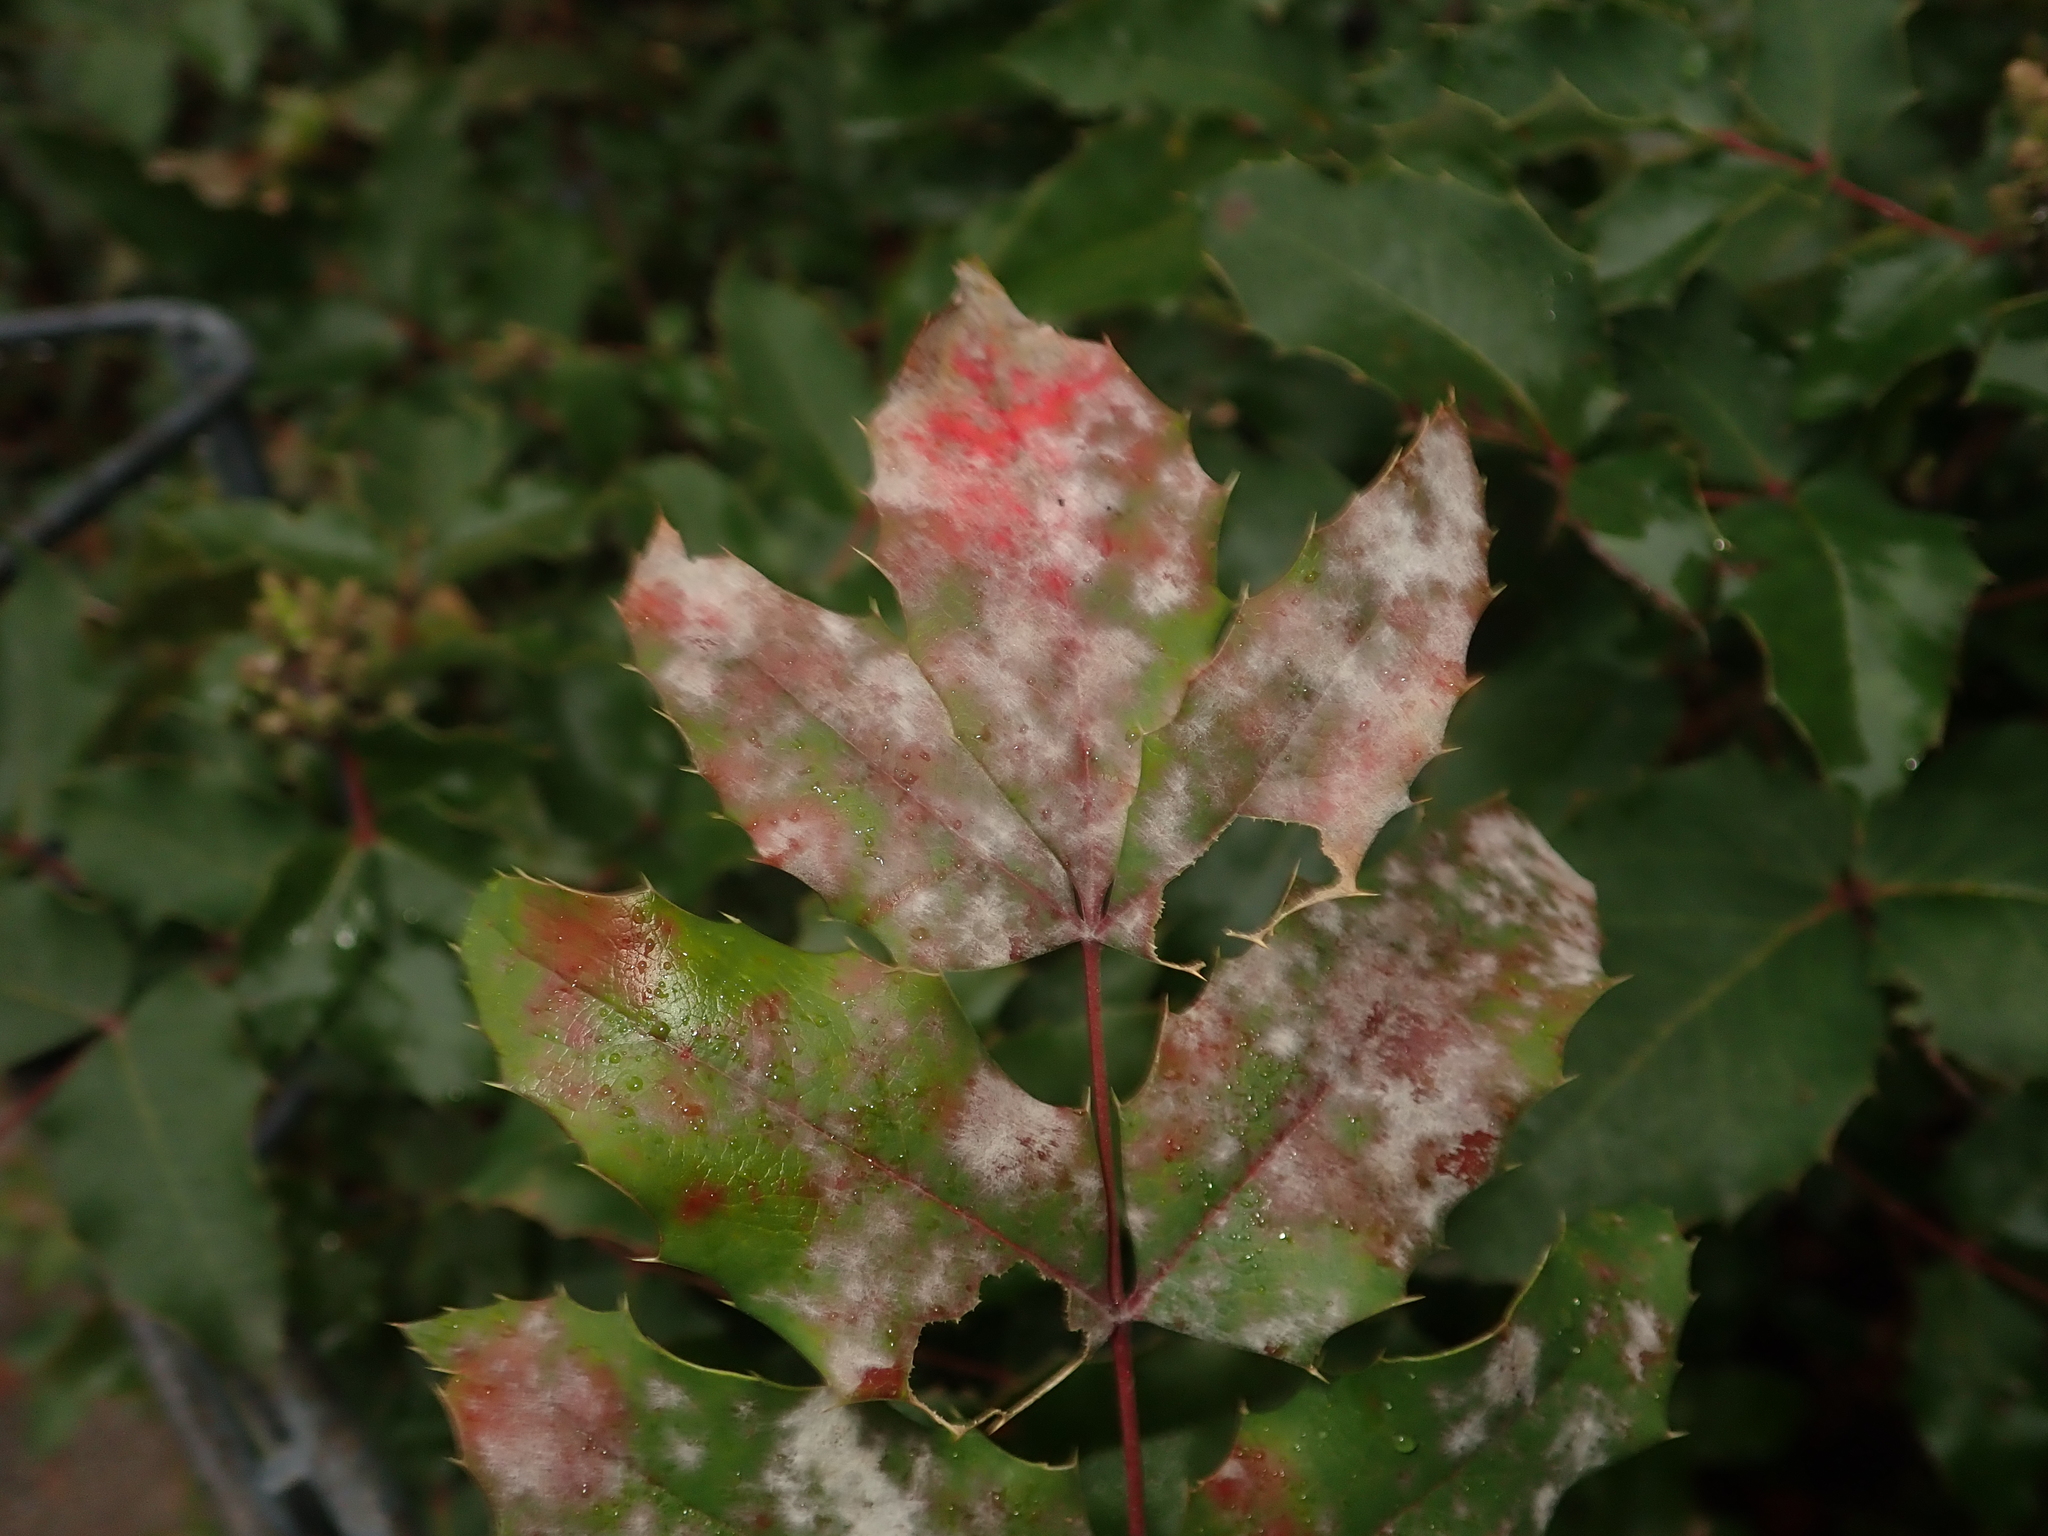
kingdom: Fungi
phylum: Ascomycota
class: Leotiomycetes
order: Helotiales
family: Erysiphaceae
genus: Erysiphe
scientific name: Erysiphe berberidis
